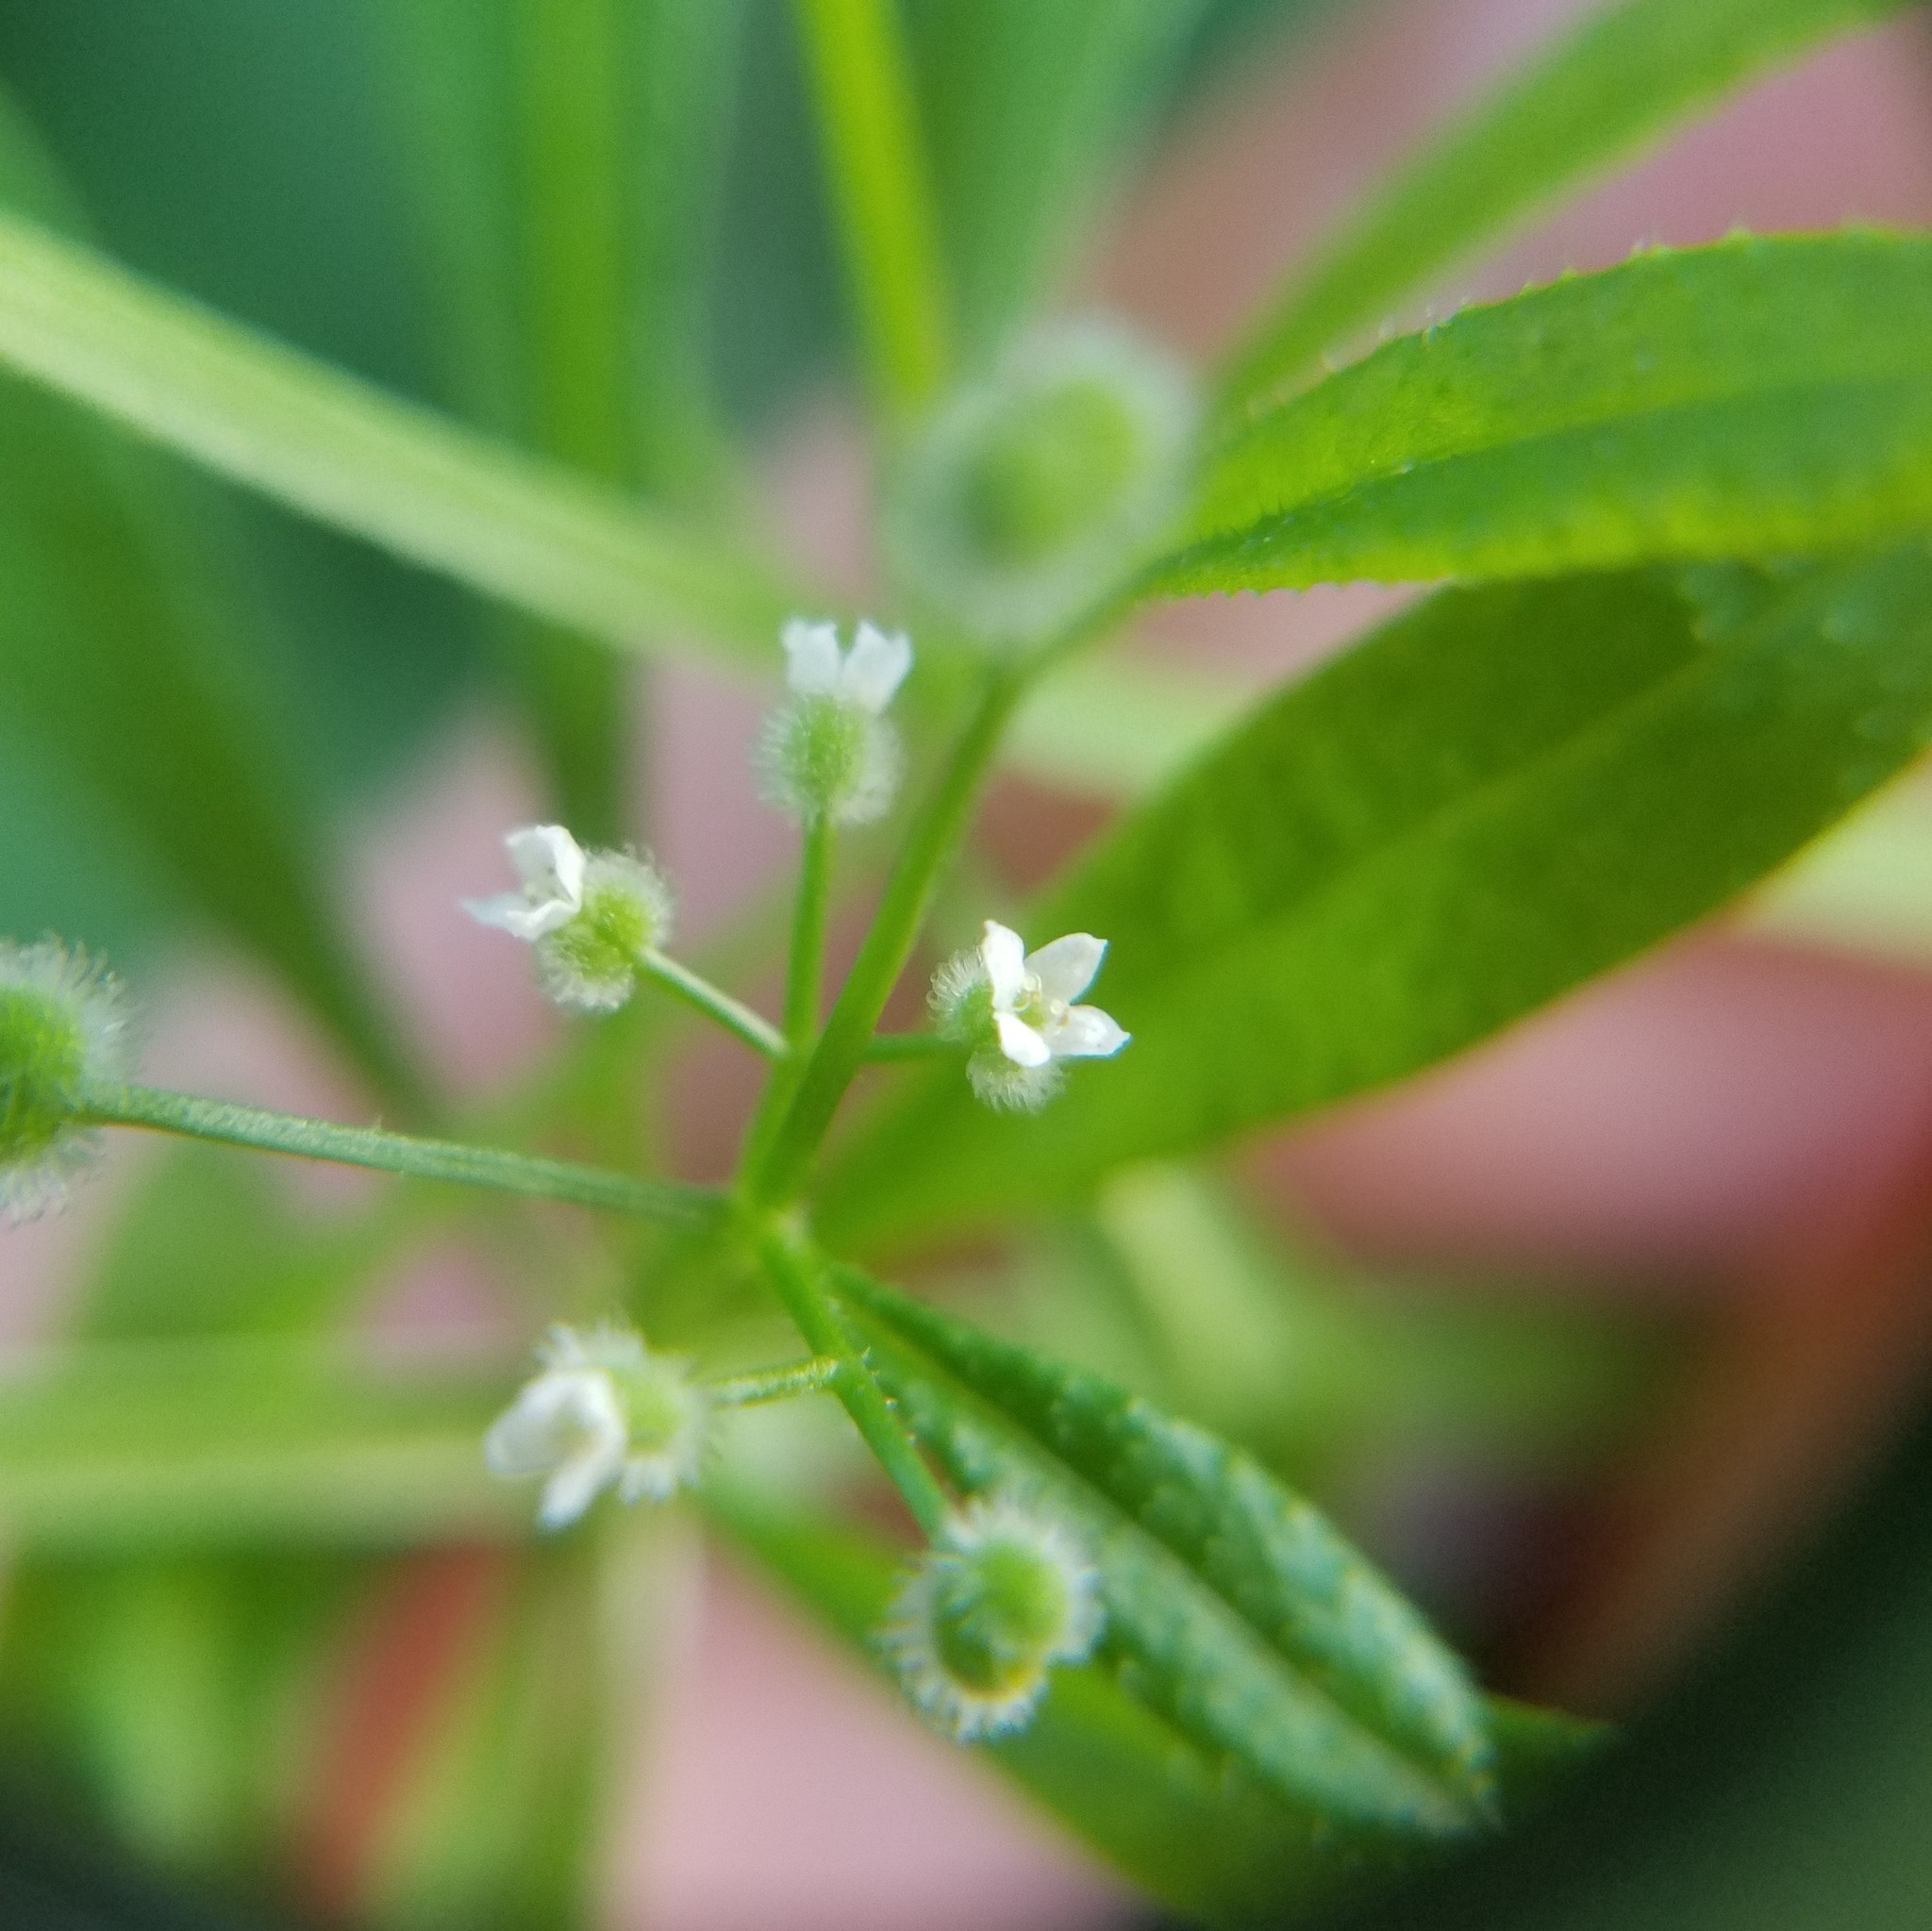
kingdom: Plantae
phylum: Tracheophyta
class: Magnoliopsida
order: Gentianales
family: Rubiaceae
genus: Galium
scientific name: Galium aparine
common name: Cleavers
